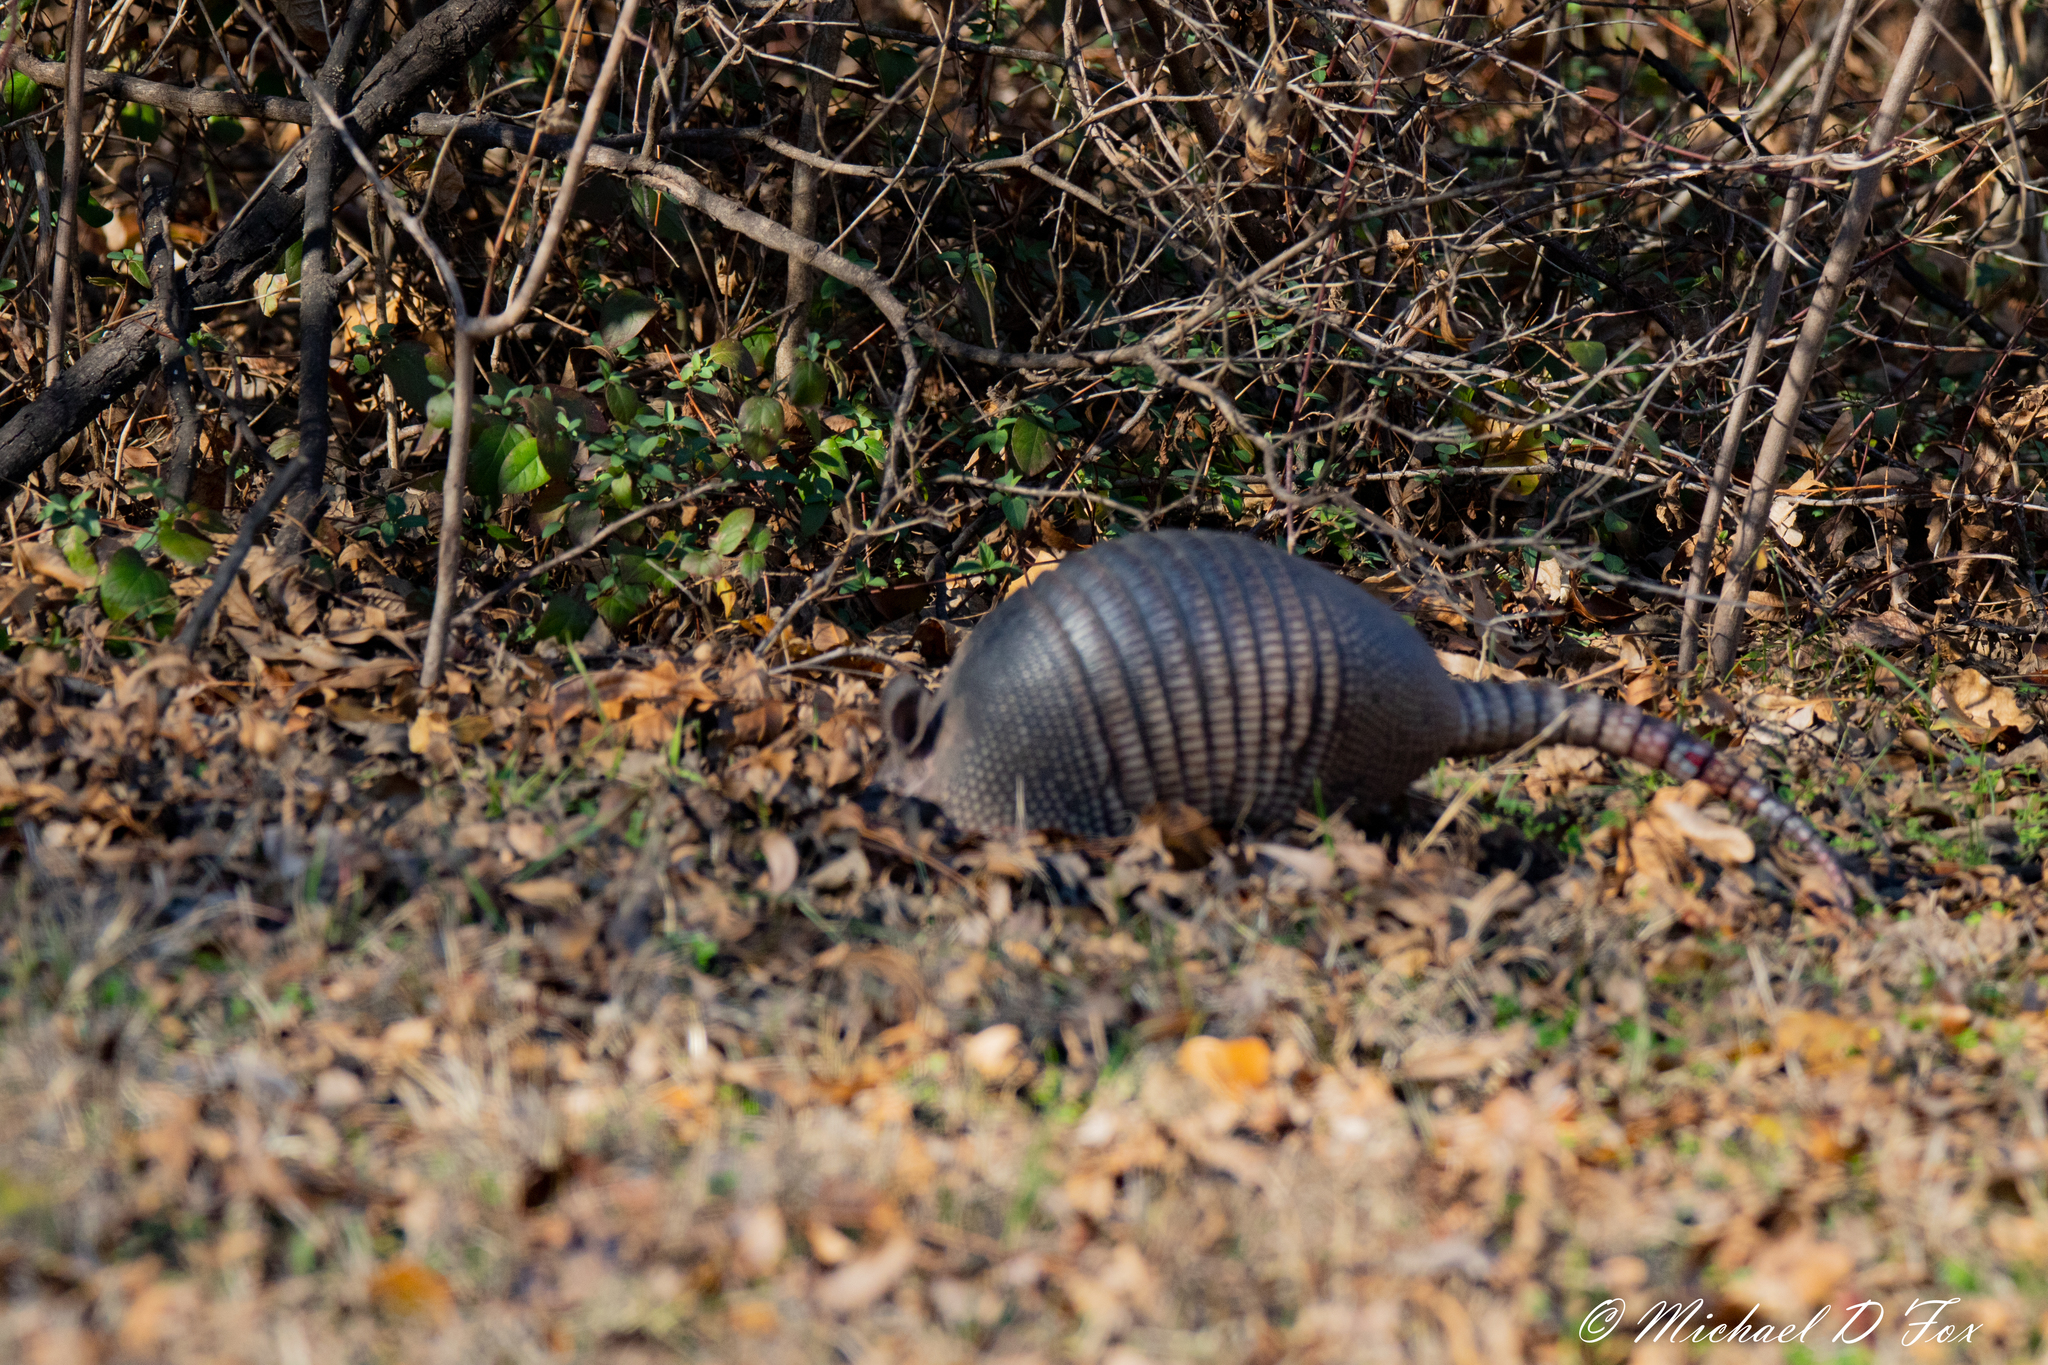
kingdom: Animalia
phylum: Chordata
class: Mammalia
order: Cingulata
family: Dasypodidae
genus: Dasypus
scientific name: Dasypus novemcinctus
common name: Nine-banded armadillo
